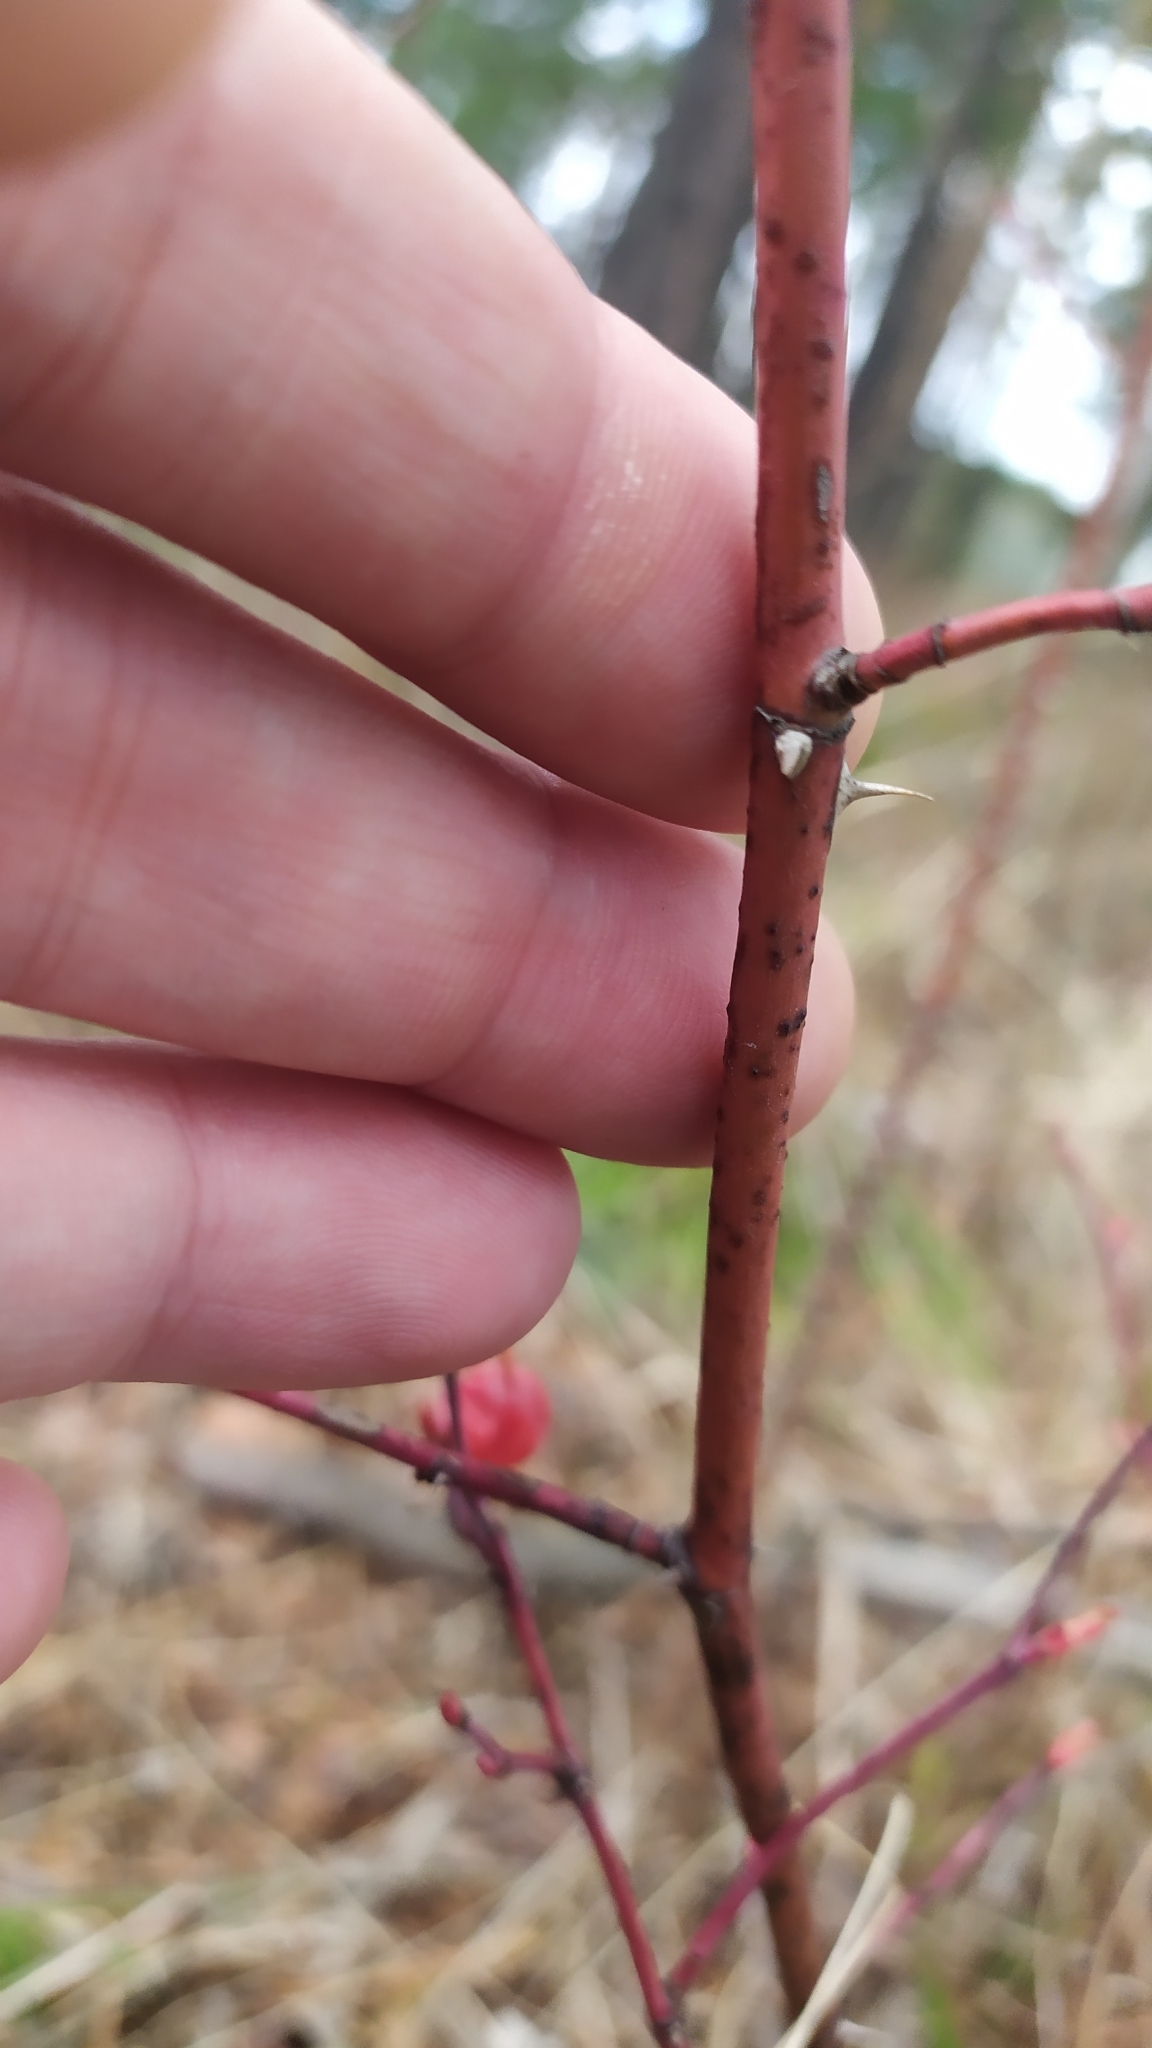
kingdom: Plantae
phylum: Tracheophyta
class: Magnoliopsida
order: Rosales
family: Rosaceae
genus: Rosa
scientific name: Rosa
